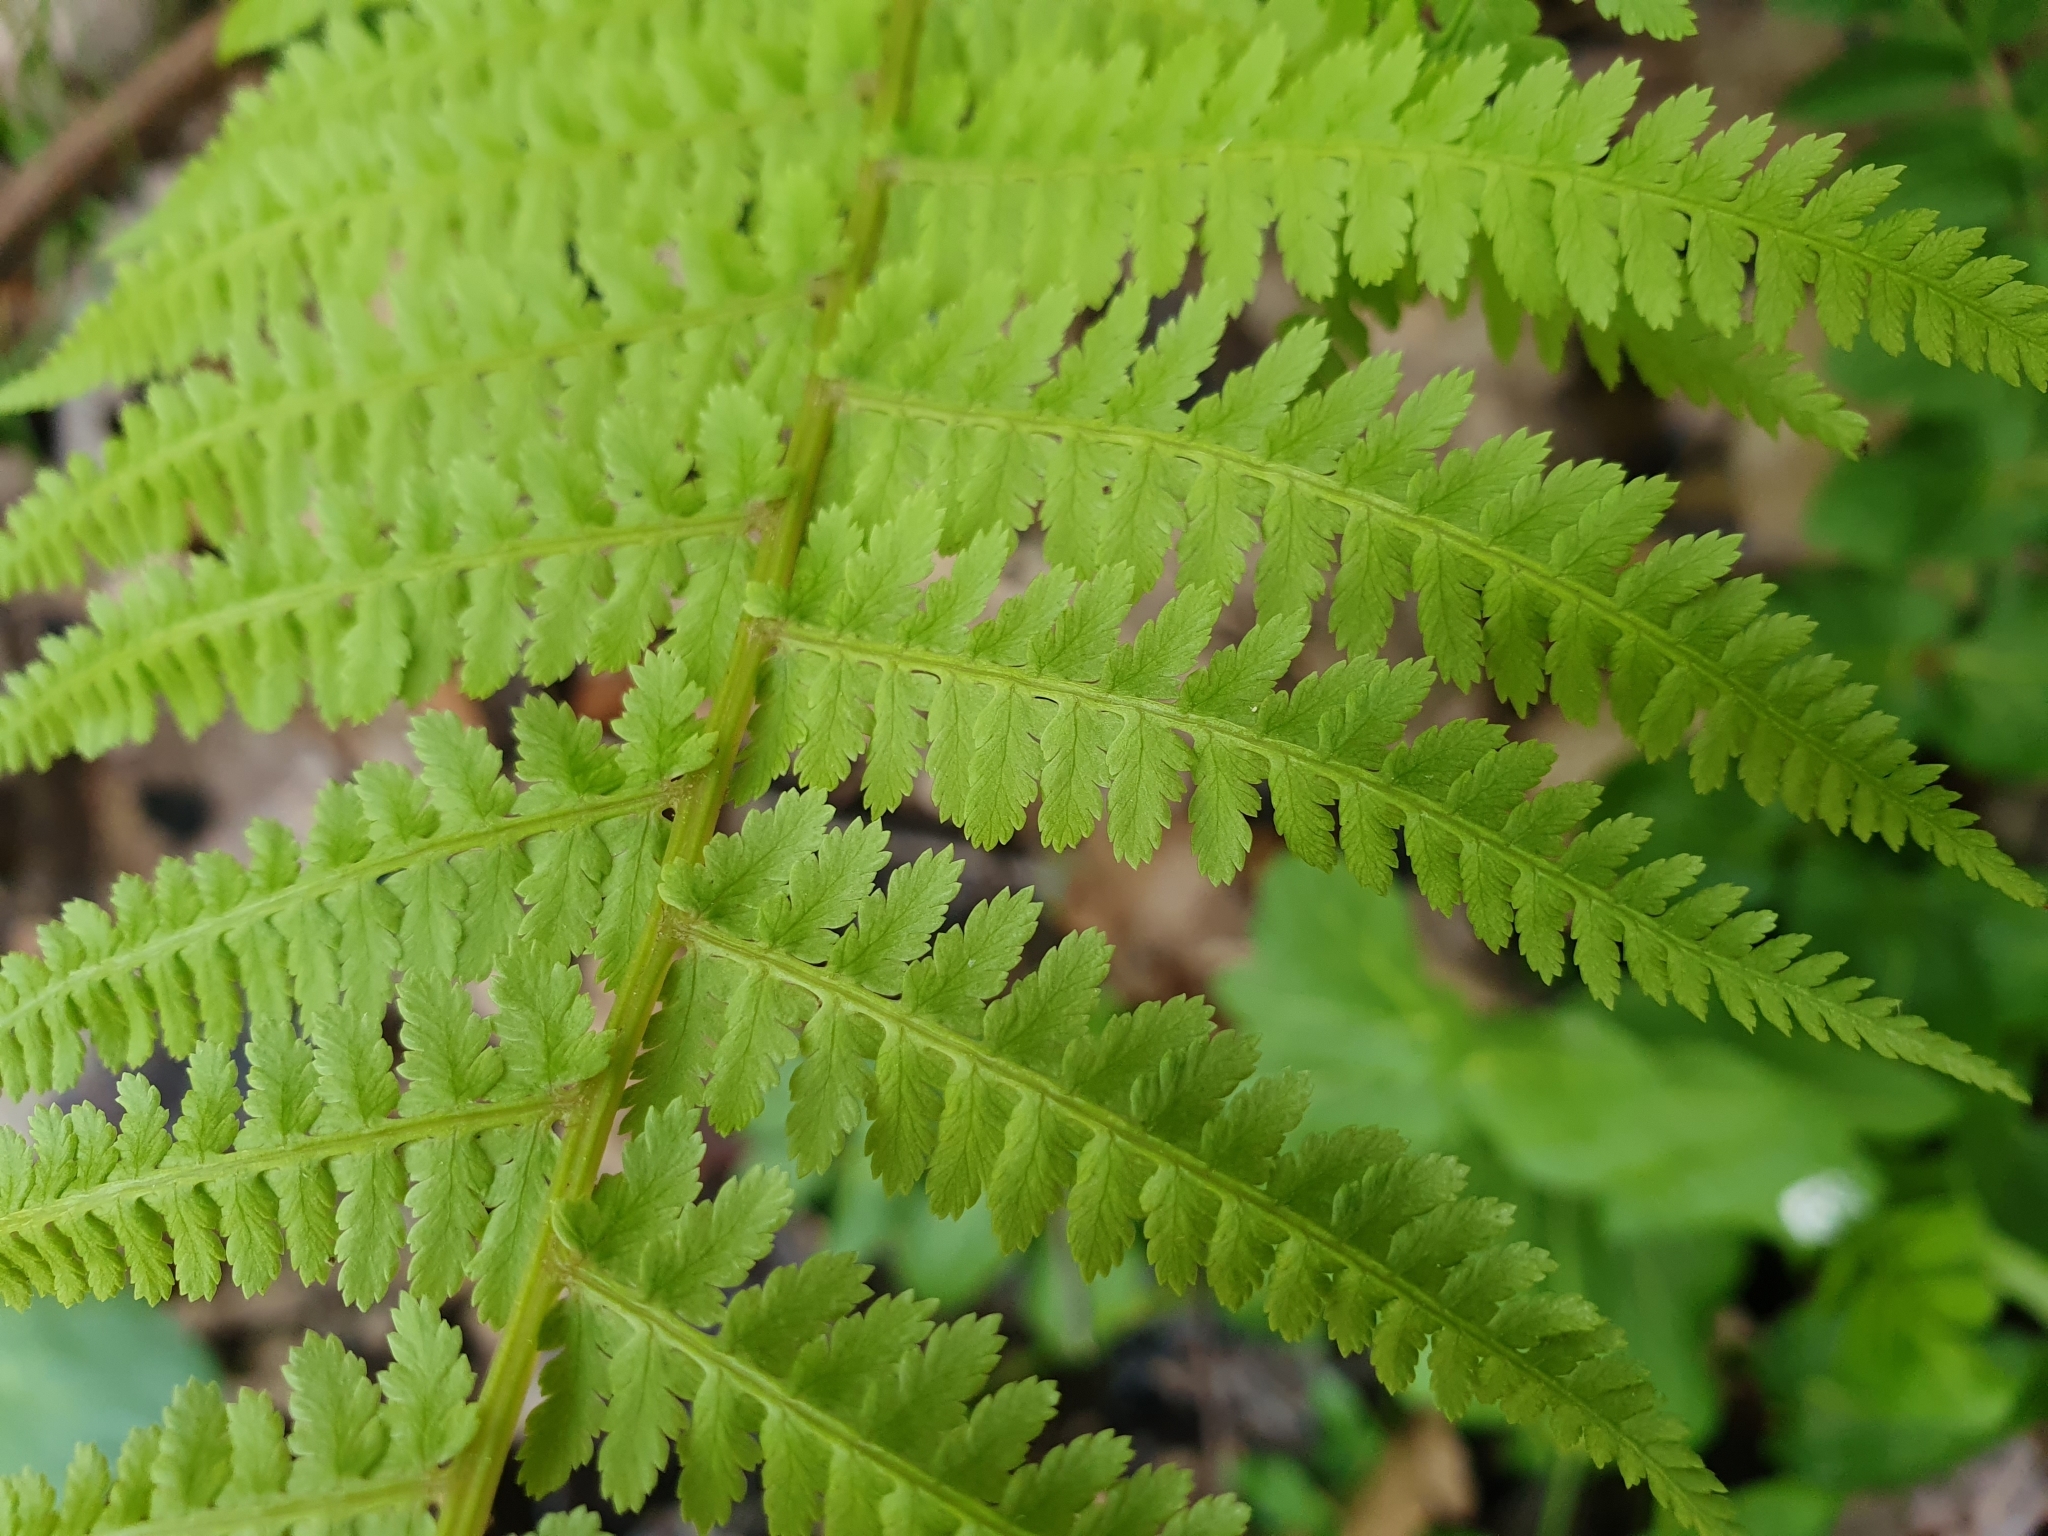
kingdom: Plantae
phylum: Tracheophyta
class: Polypodiopsida
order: Polypodiales
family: Athyriaceae
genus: Athyrium
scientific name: Athyrium filix-femina
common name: Lady fern
